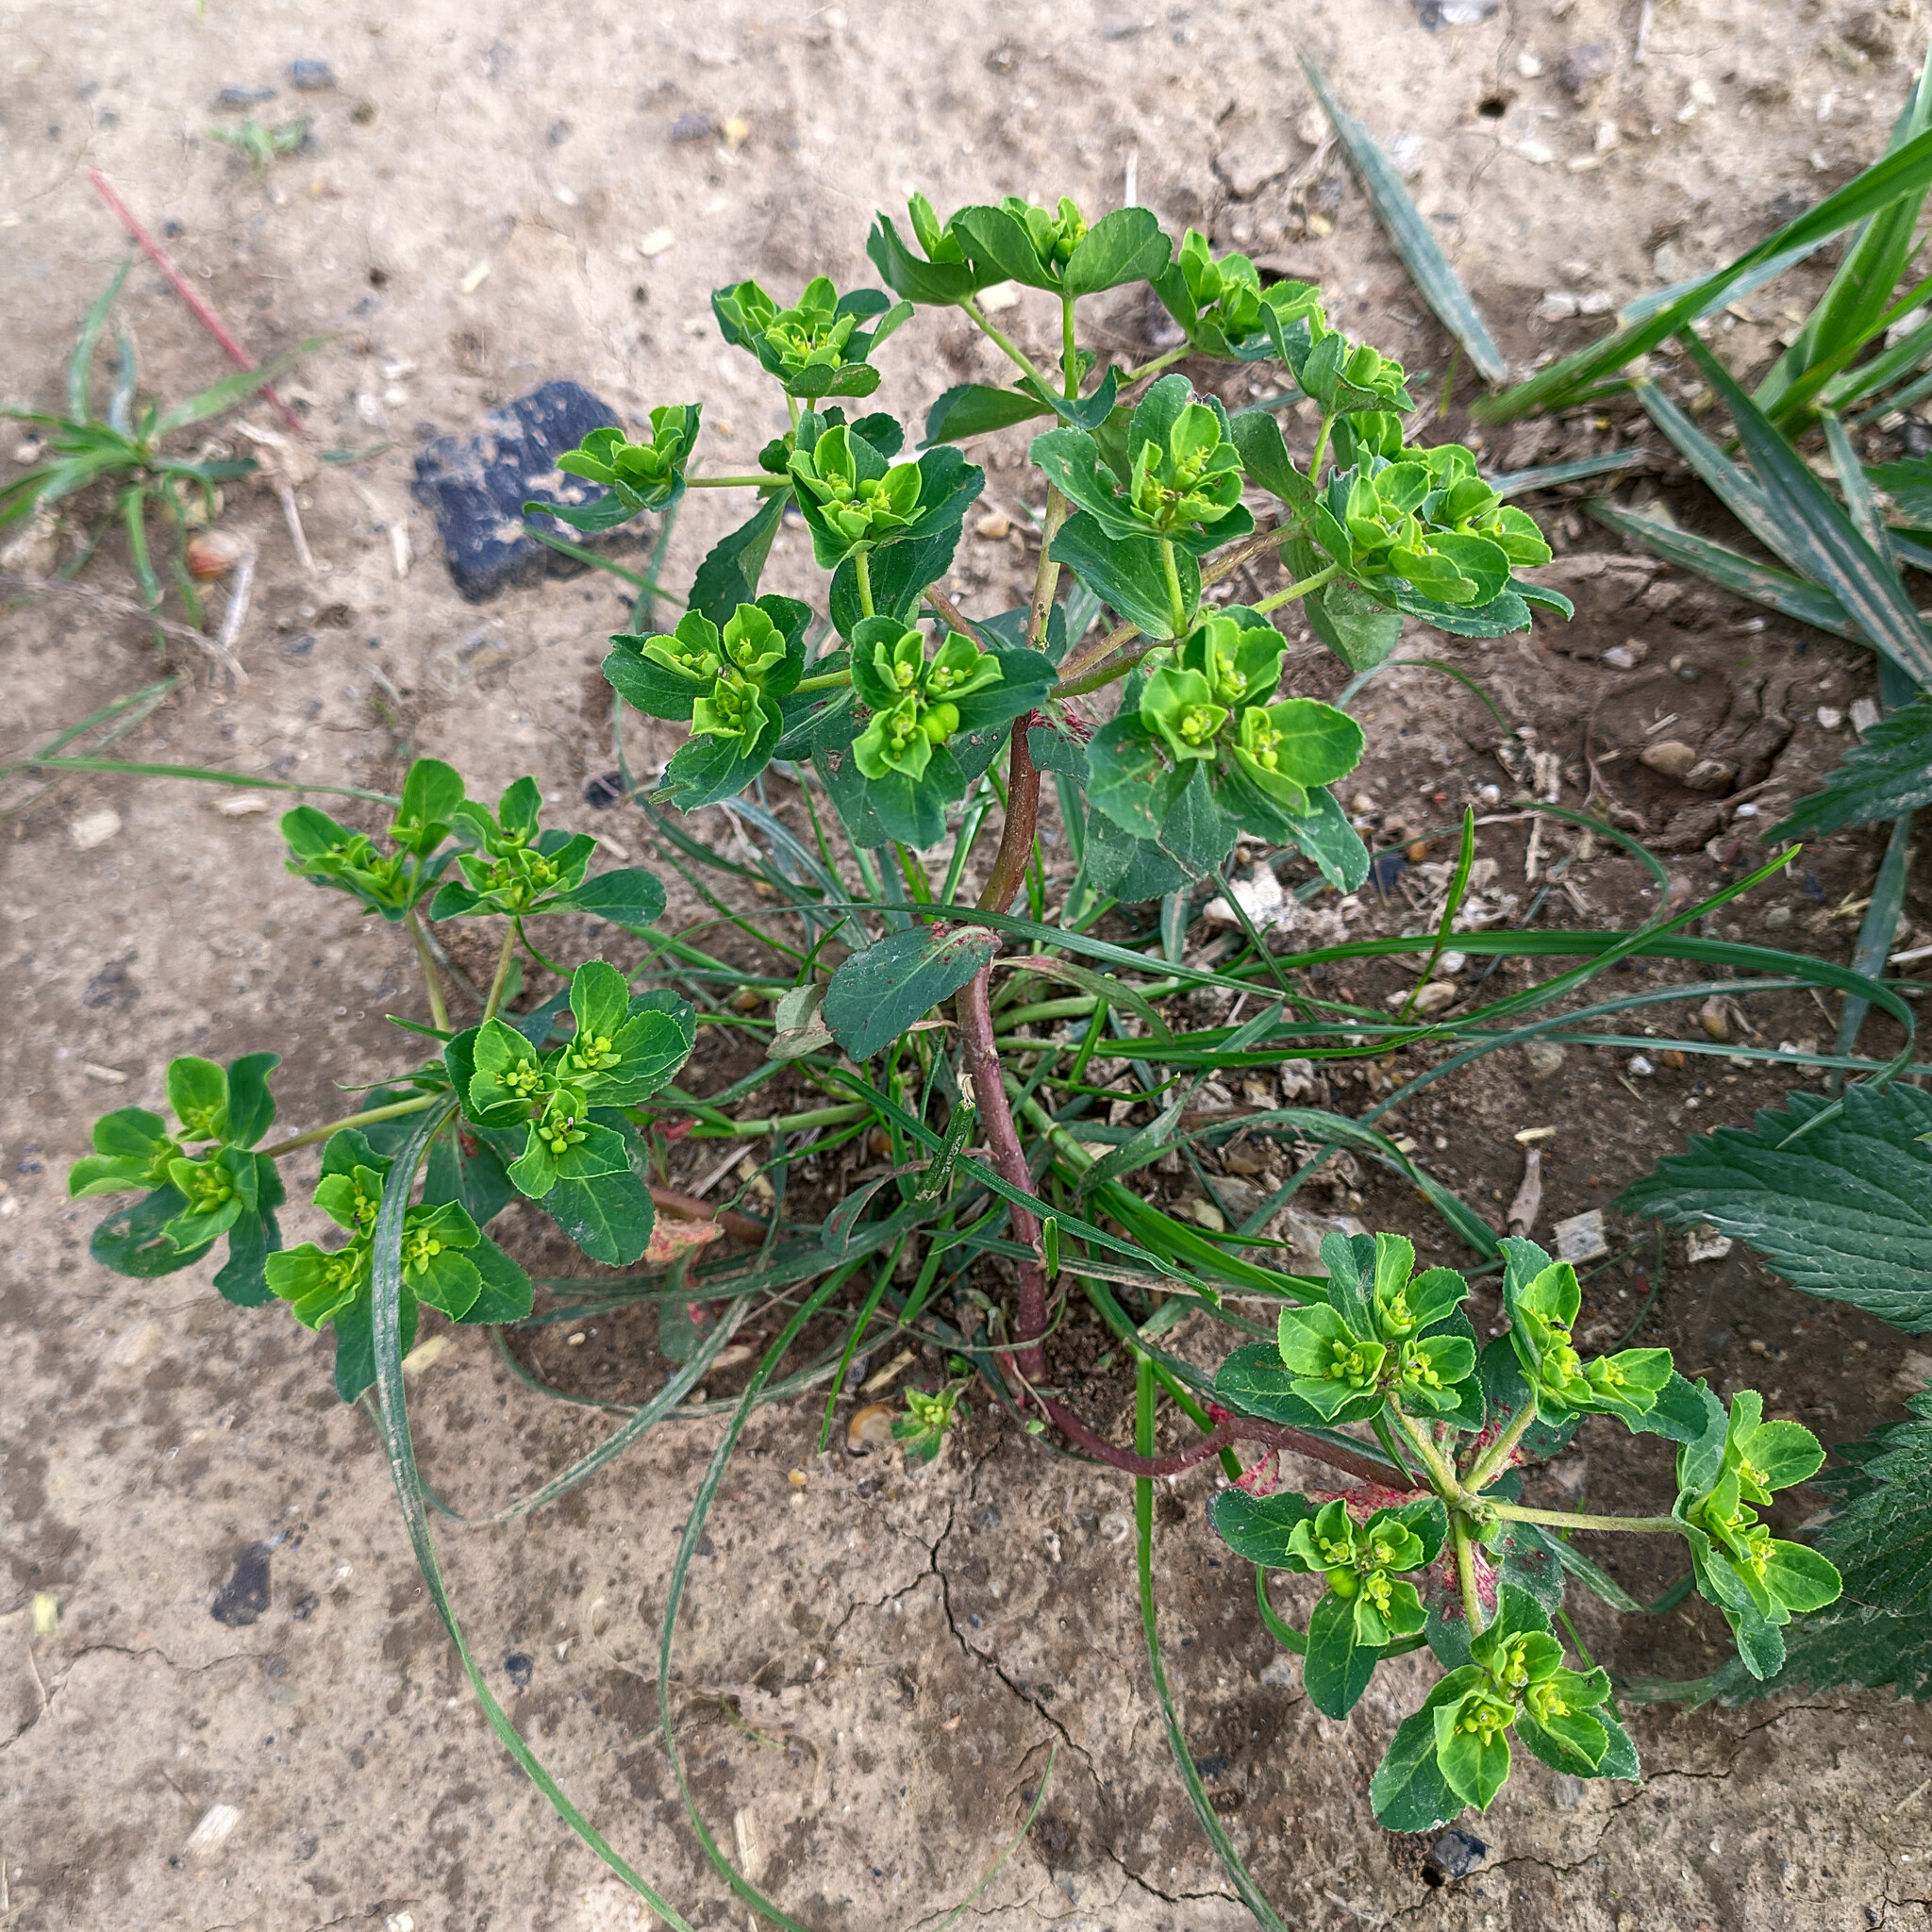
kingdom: Plantae
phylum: Tracheophyta
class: Magnoliopsida
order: Malpighiales
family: Euphorbiaceae
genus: Euphorbia
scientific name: Euphorbia helioscopia
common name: Sun spurge
